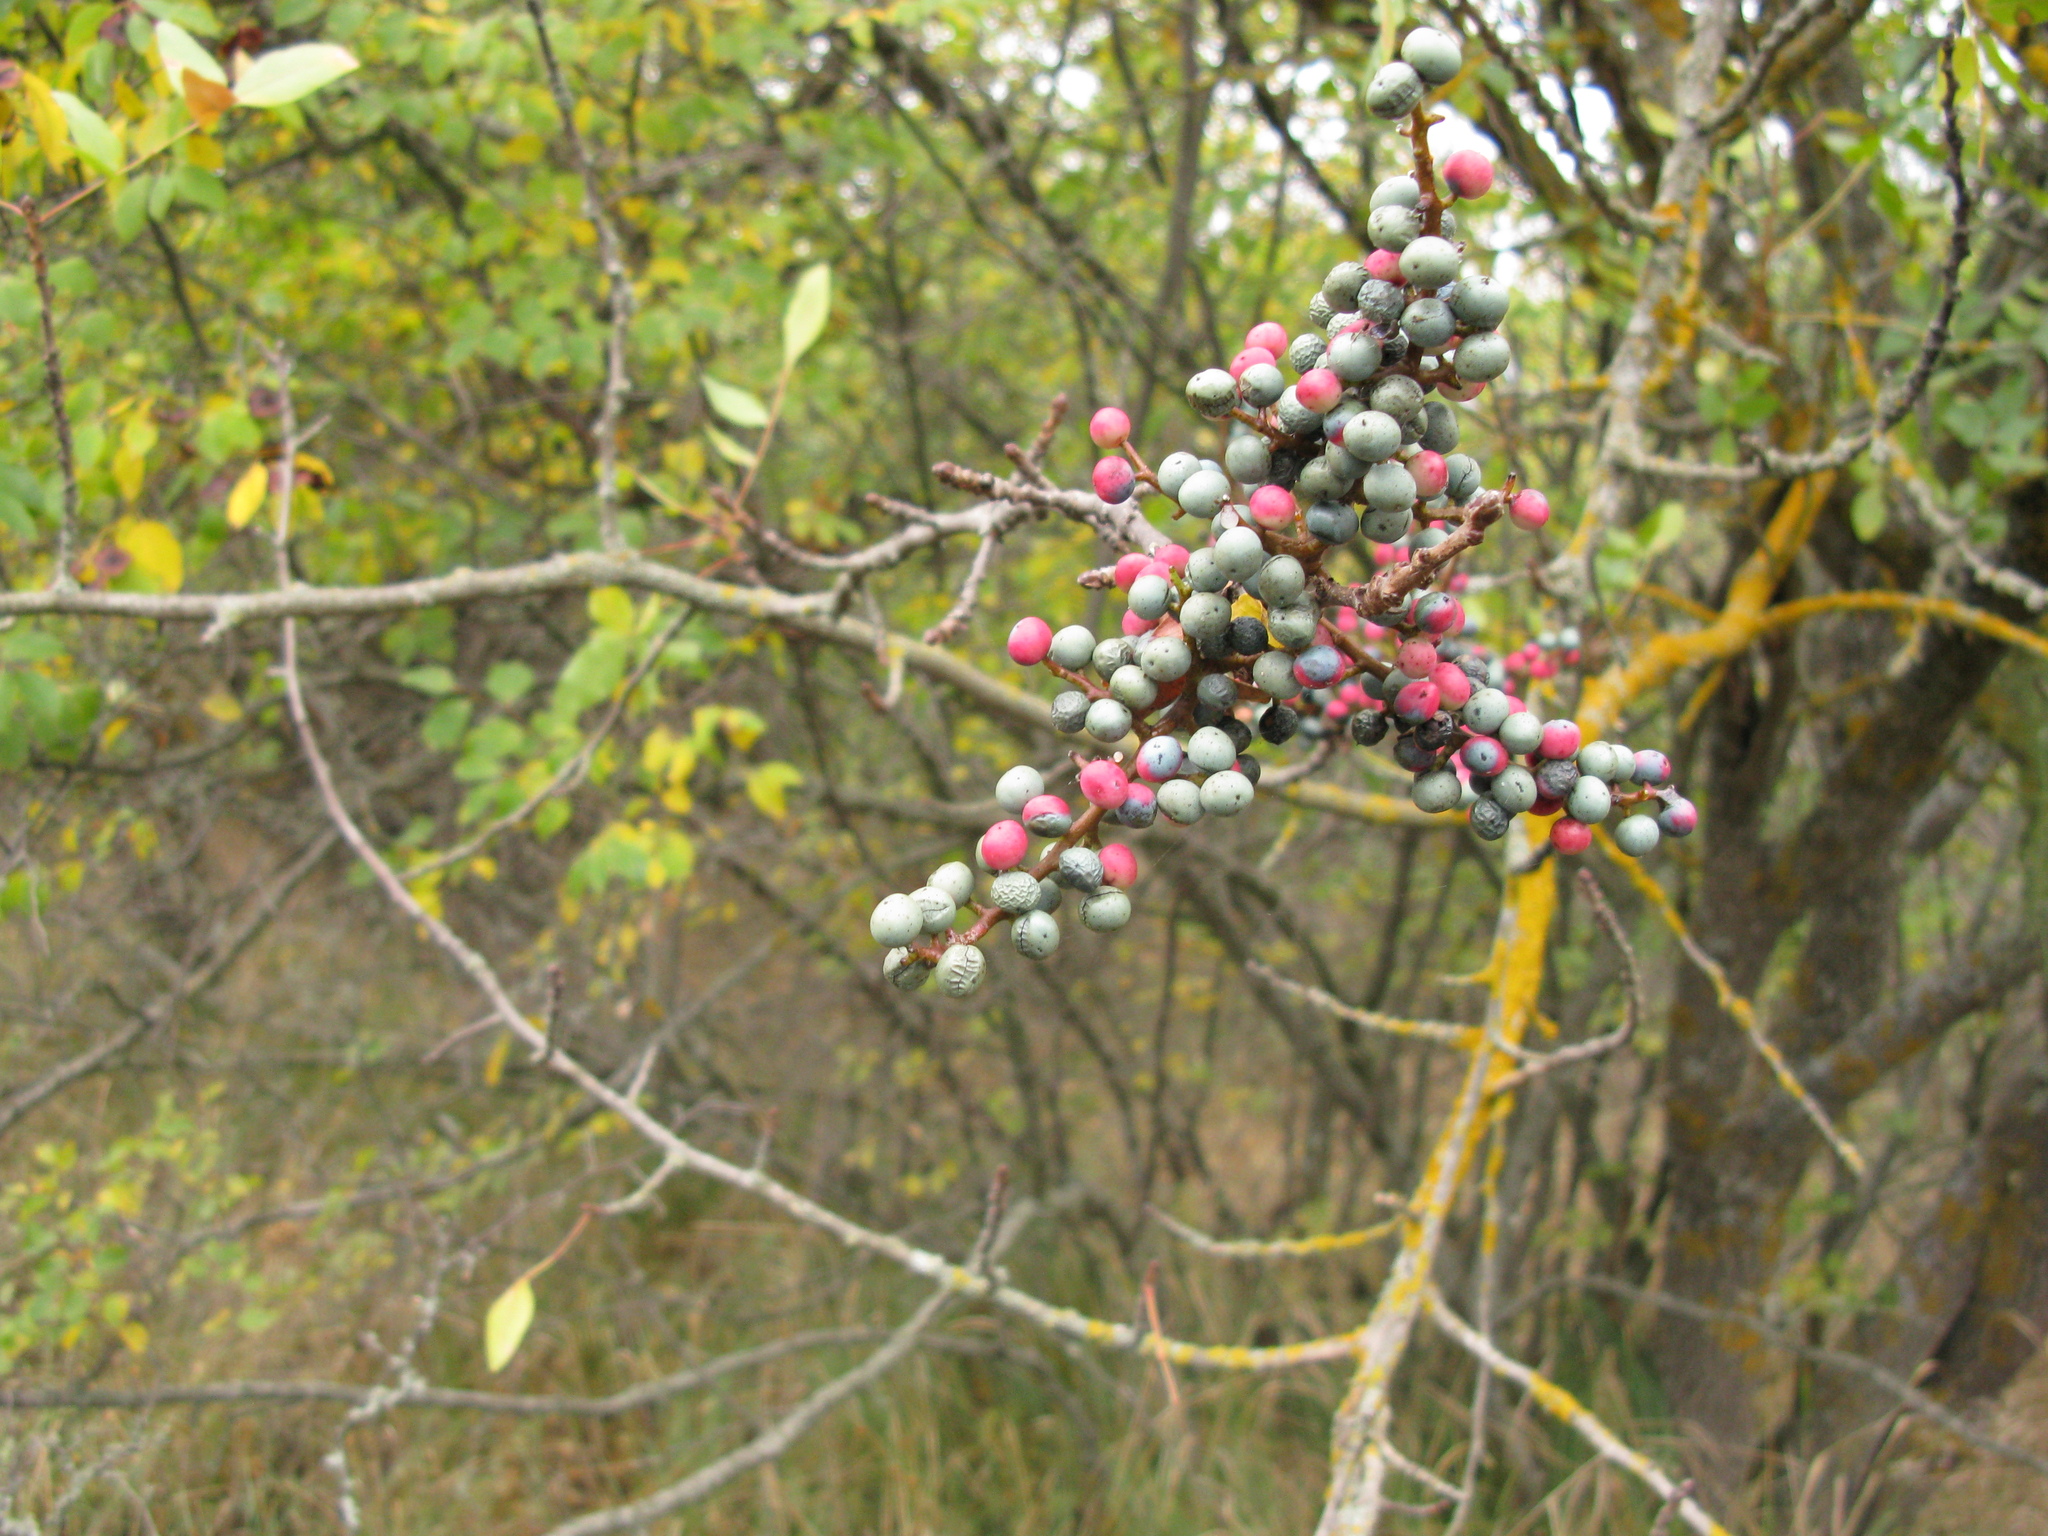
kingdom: Plantae
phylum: Tracheophyta
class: Magnoliopsida
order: Sapindales
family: Anacardiaceae
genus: Pistacia
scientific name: Pistacia atlantica
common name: Mt. atlas mastic tree
